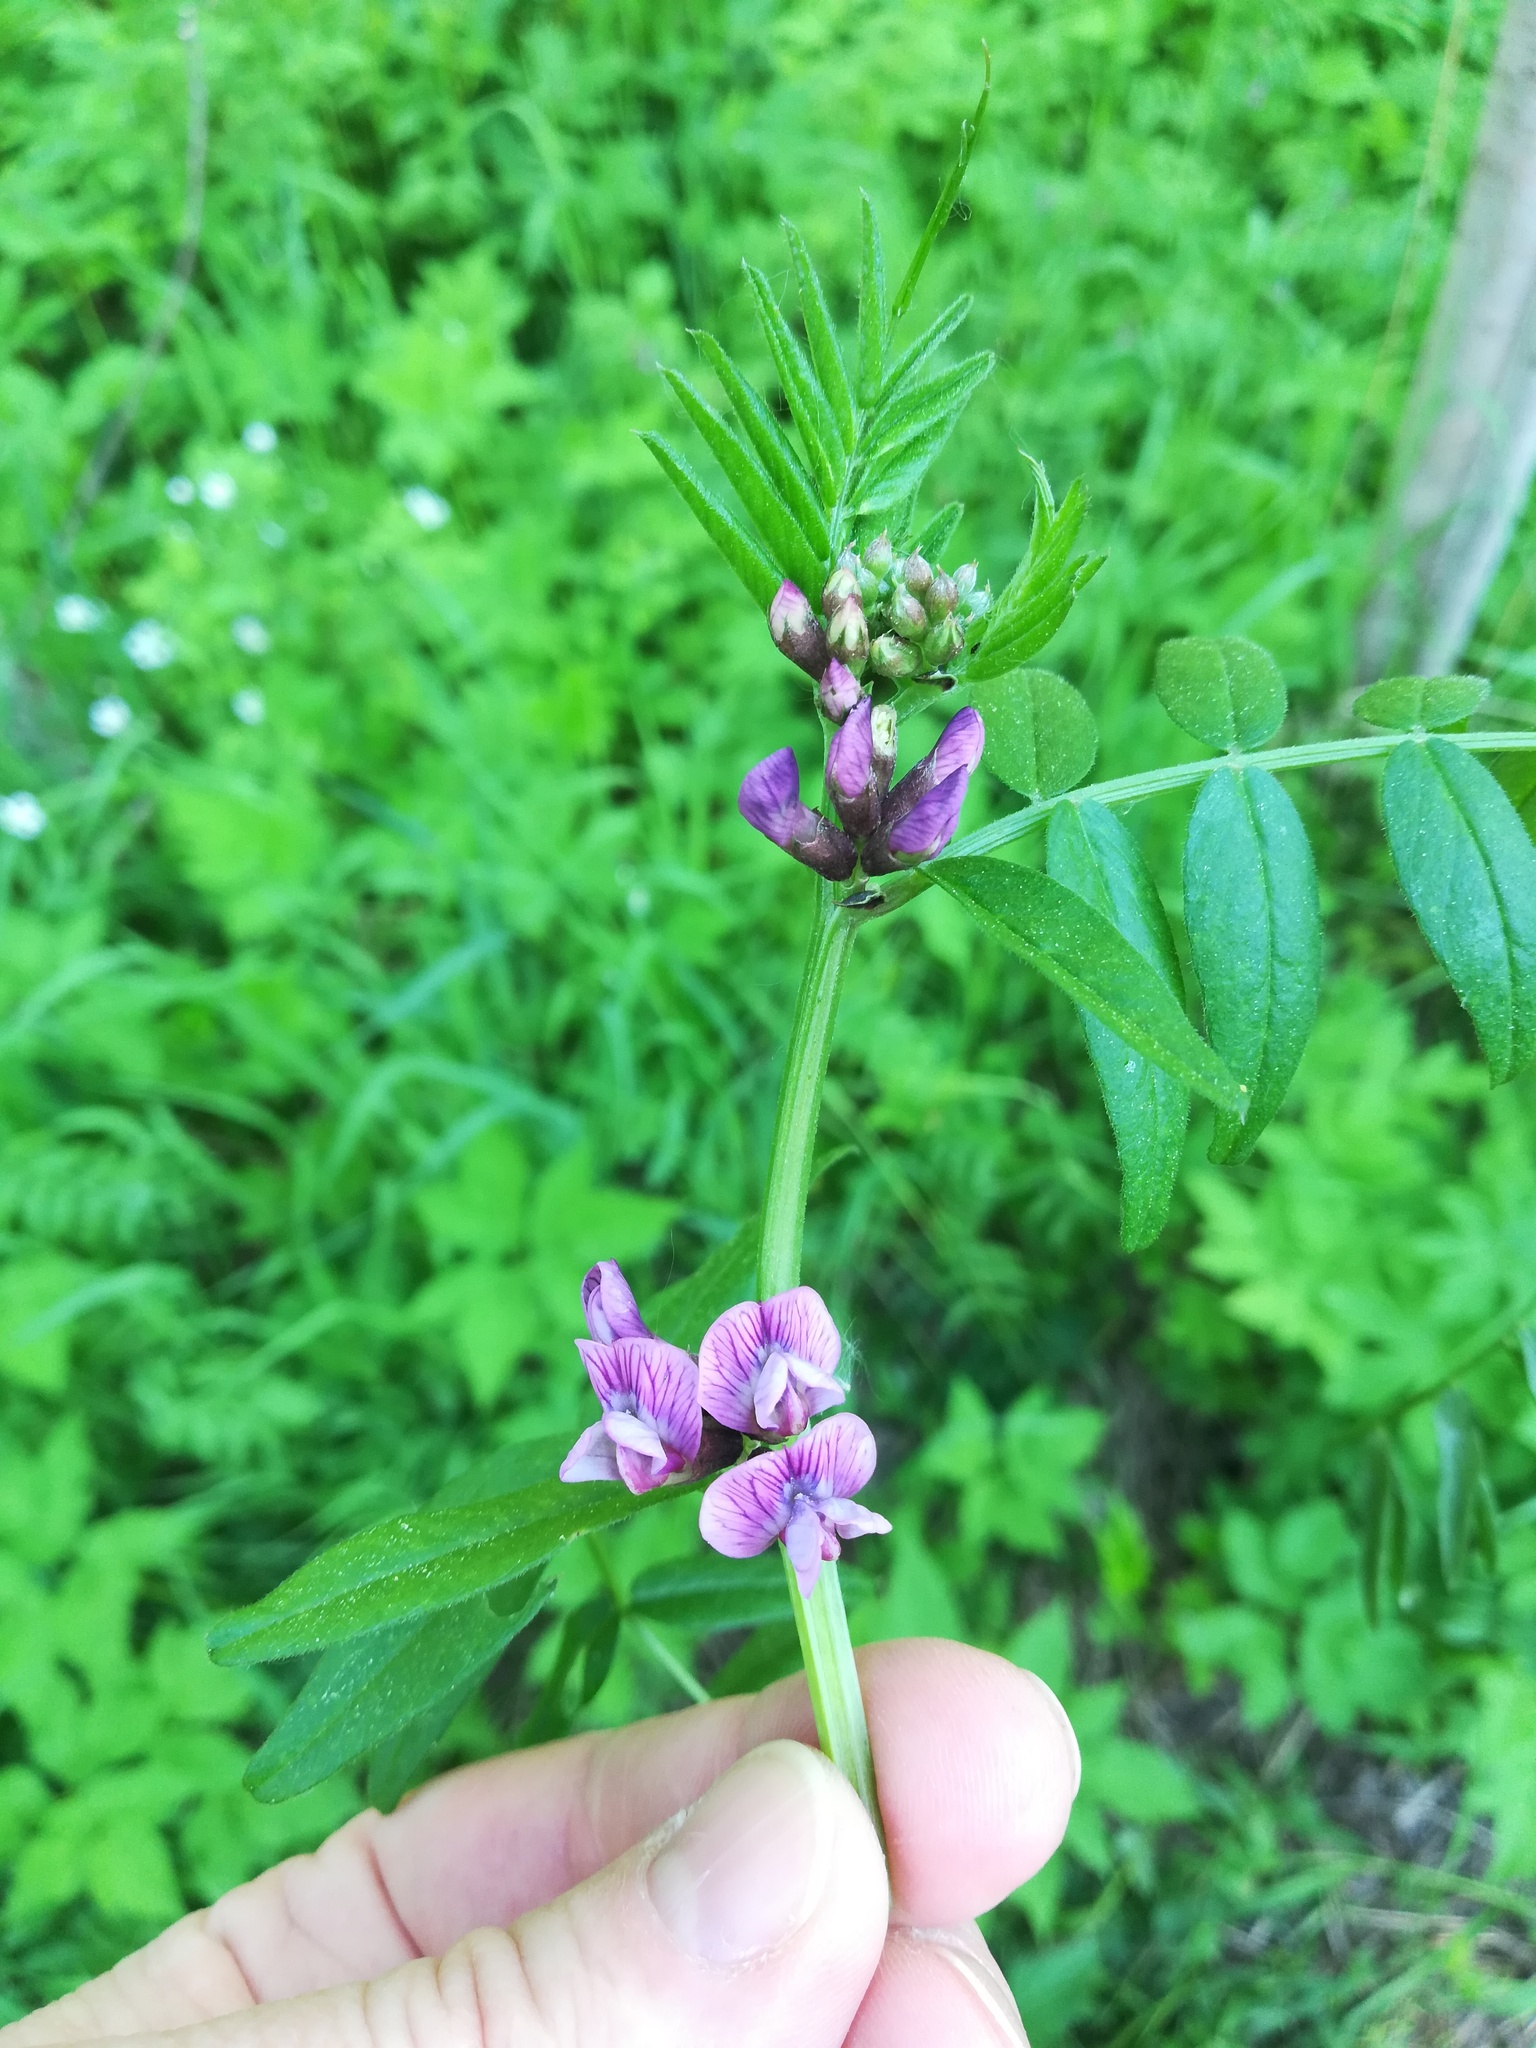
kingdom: Plantae
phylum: Tracheophyta
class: Magnoliopsida
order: Fabales
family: Fabaceae
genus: Vicia
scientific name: Vicia sepium
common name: Bush vetch
